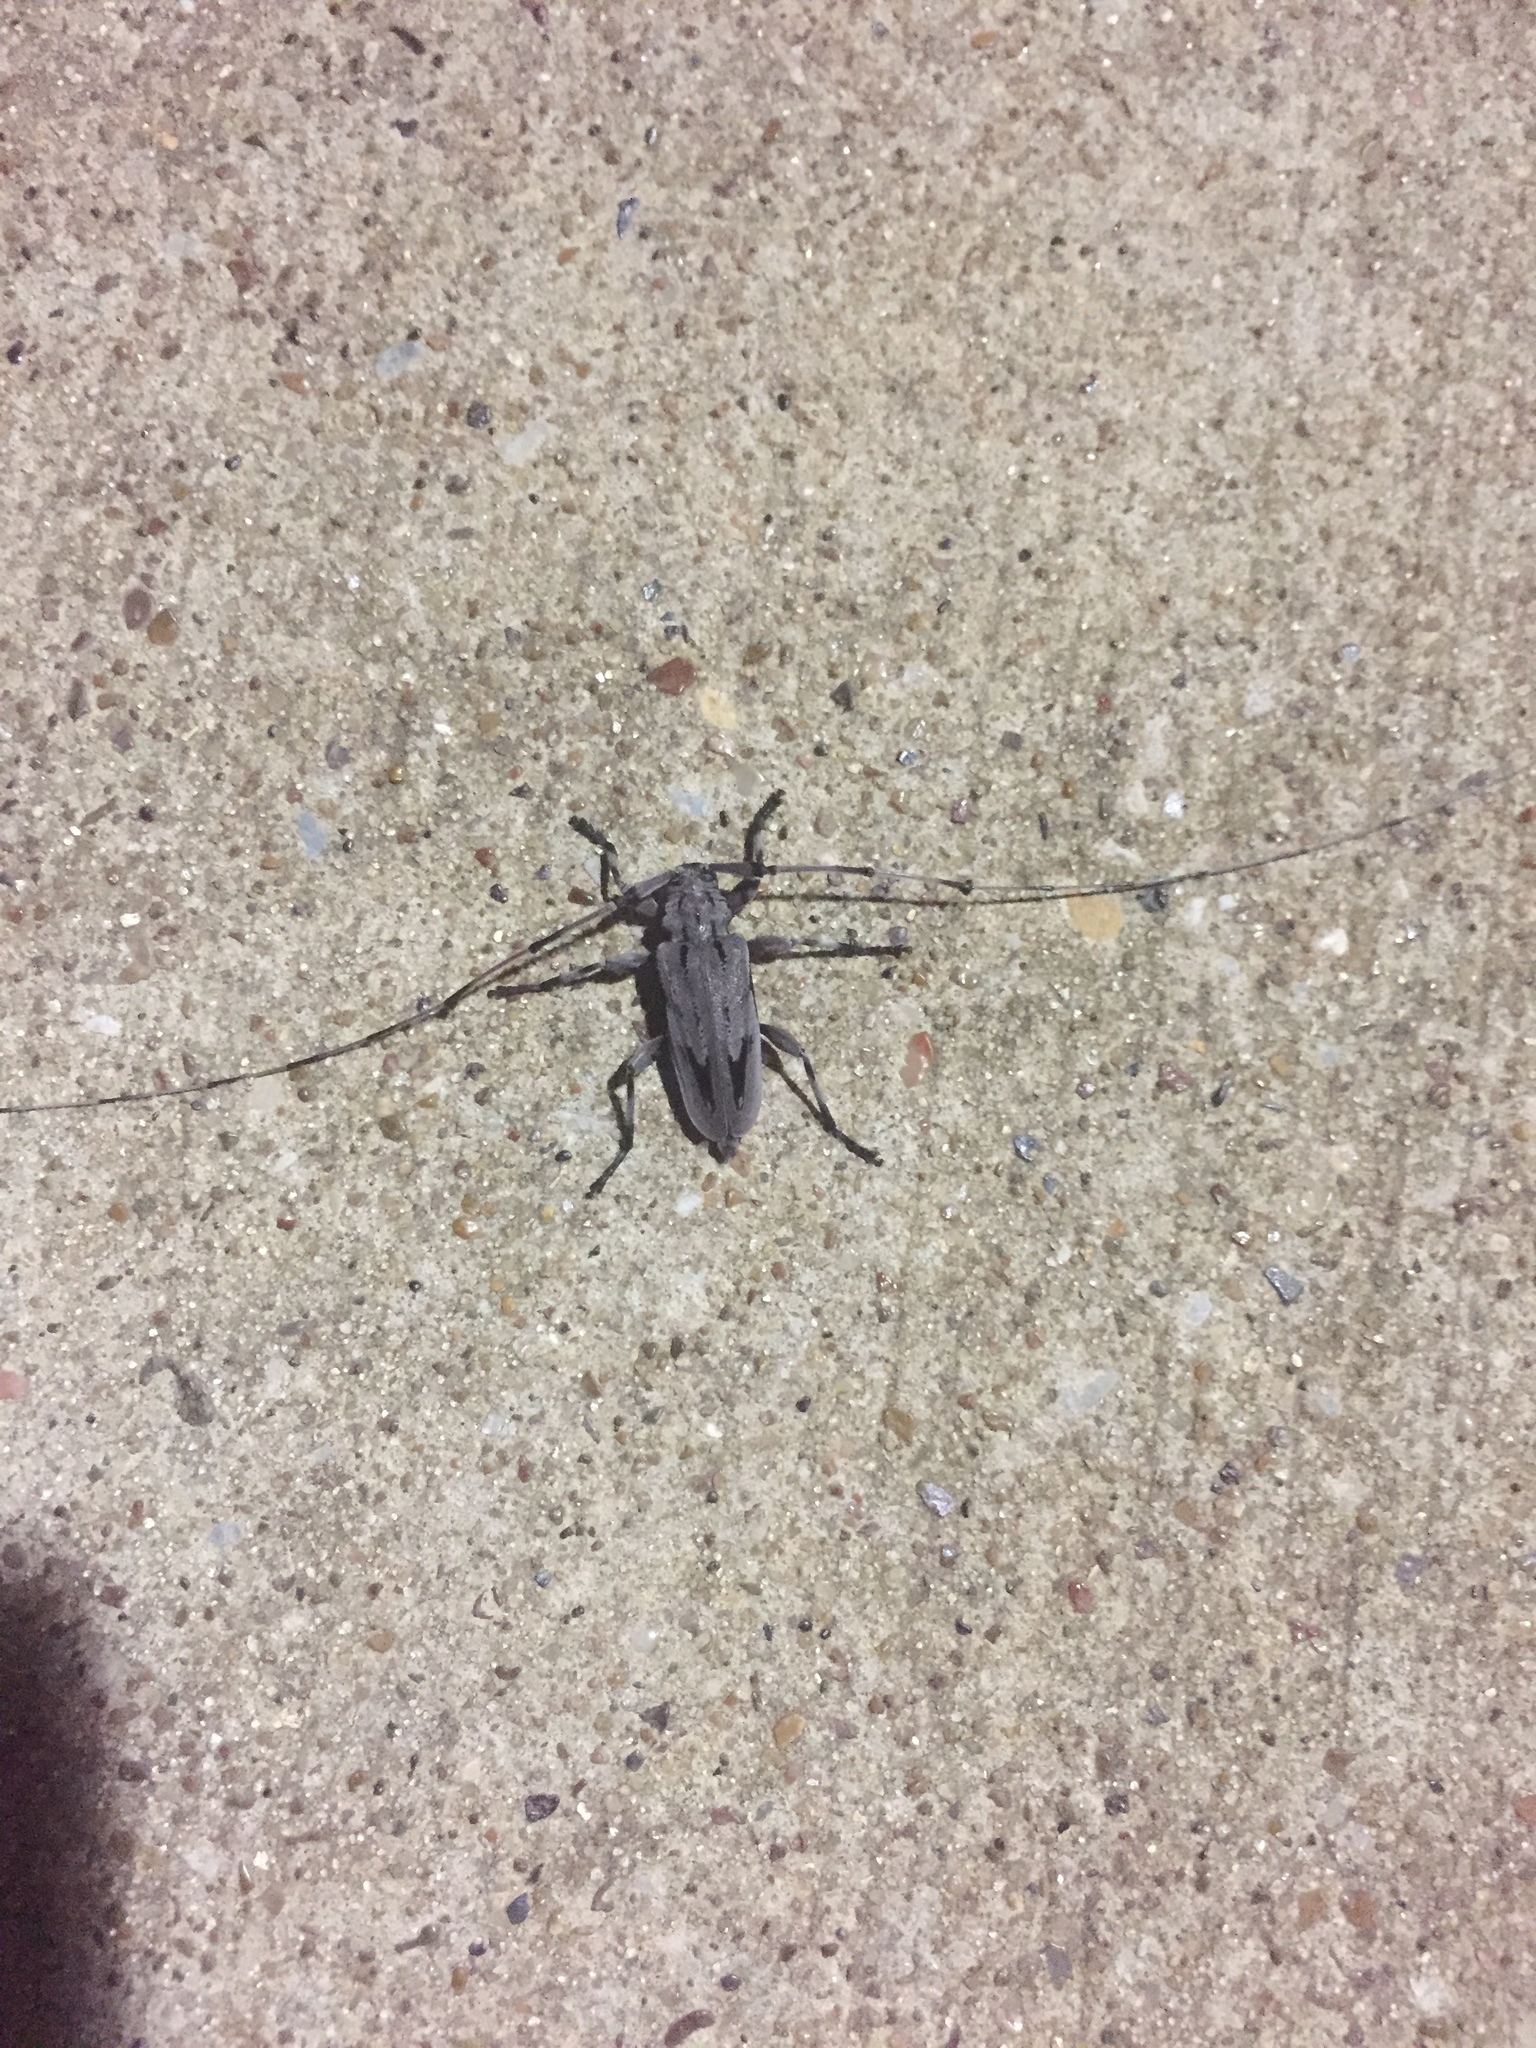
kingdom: Animalia
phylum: Arthropoda
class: Insecta
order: Coleoptera
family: Cerambycidae
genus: Acanthocinus
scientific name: Acanthocinus nodosus
